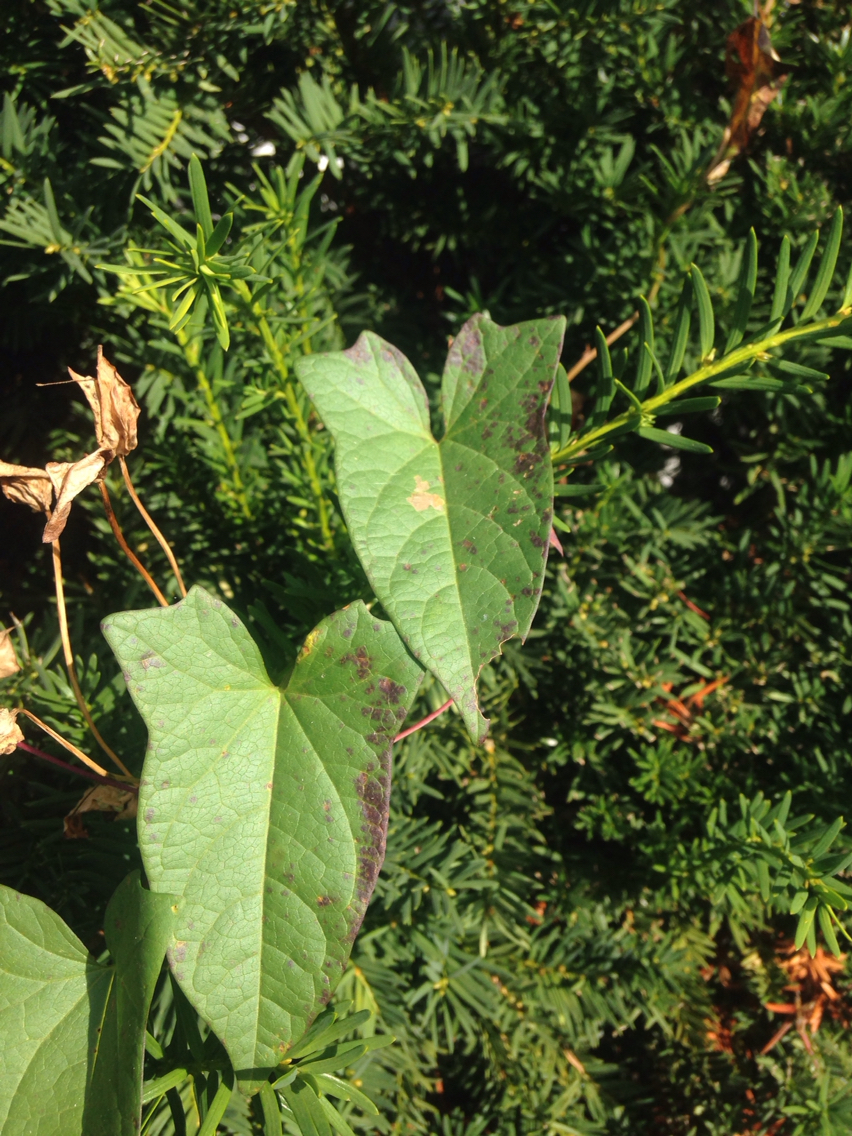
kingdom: Plantae
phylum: Tracheophyta
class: Magnoliopsida
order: Solanales
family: Convolvulaceae
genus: Calystegia
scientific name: Calystegia sepium
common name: Hedge bindweed
